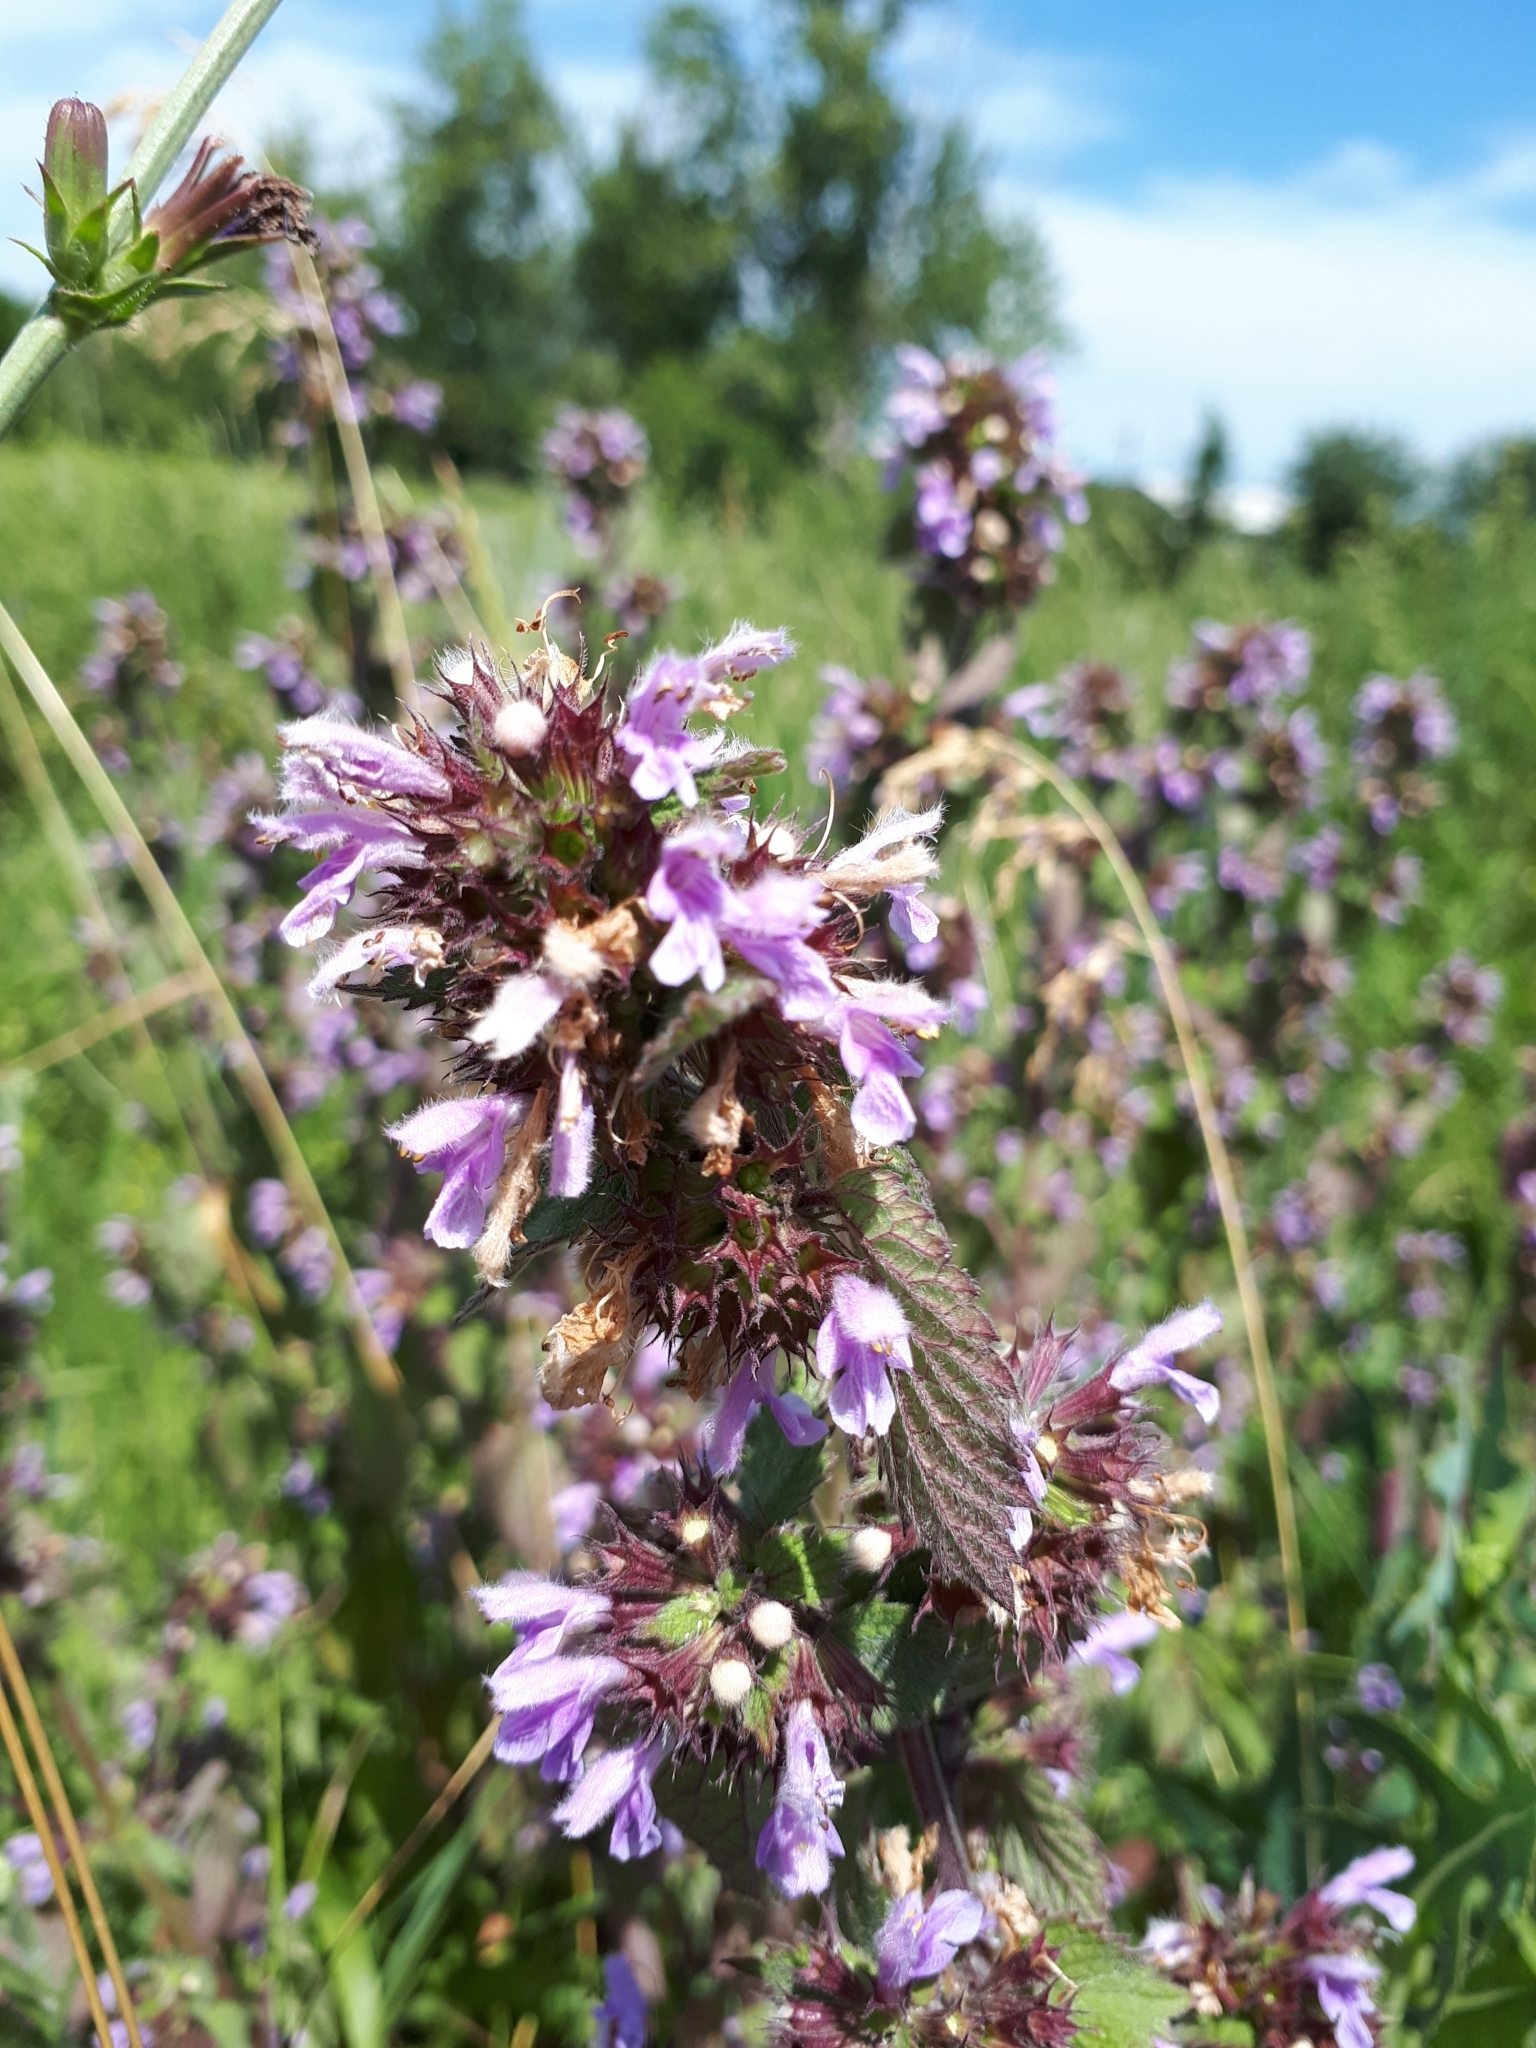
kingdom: Plantae
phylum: Tracheophyta
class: Magnoliopsida
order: Lamiales
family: Lamiaceae
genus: Ballota
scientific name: Ballota nigra
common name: Black horehound
